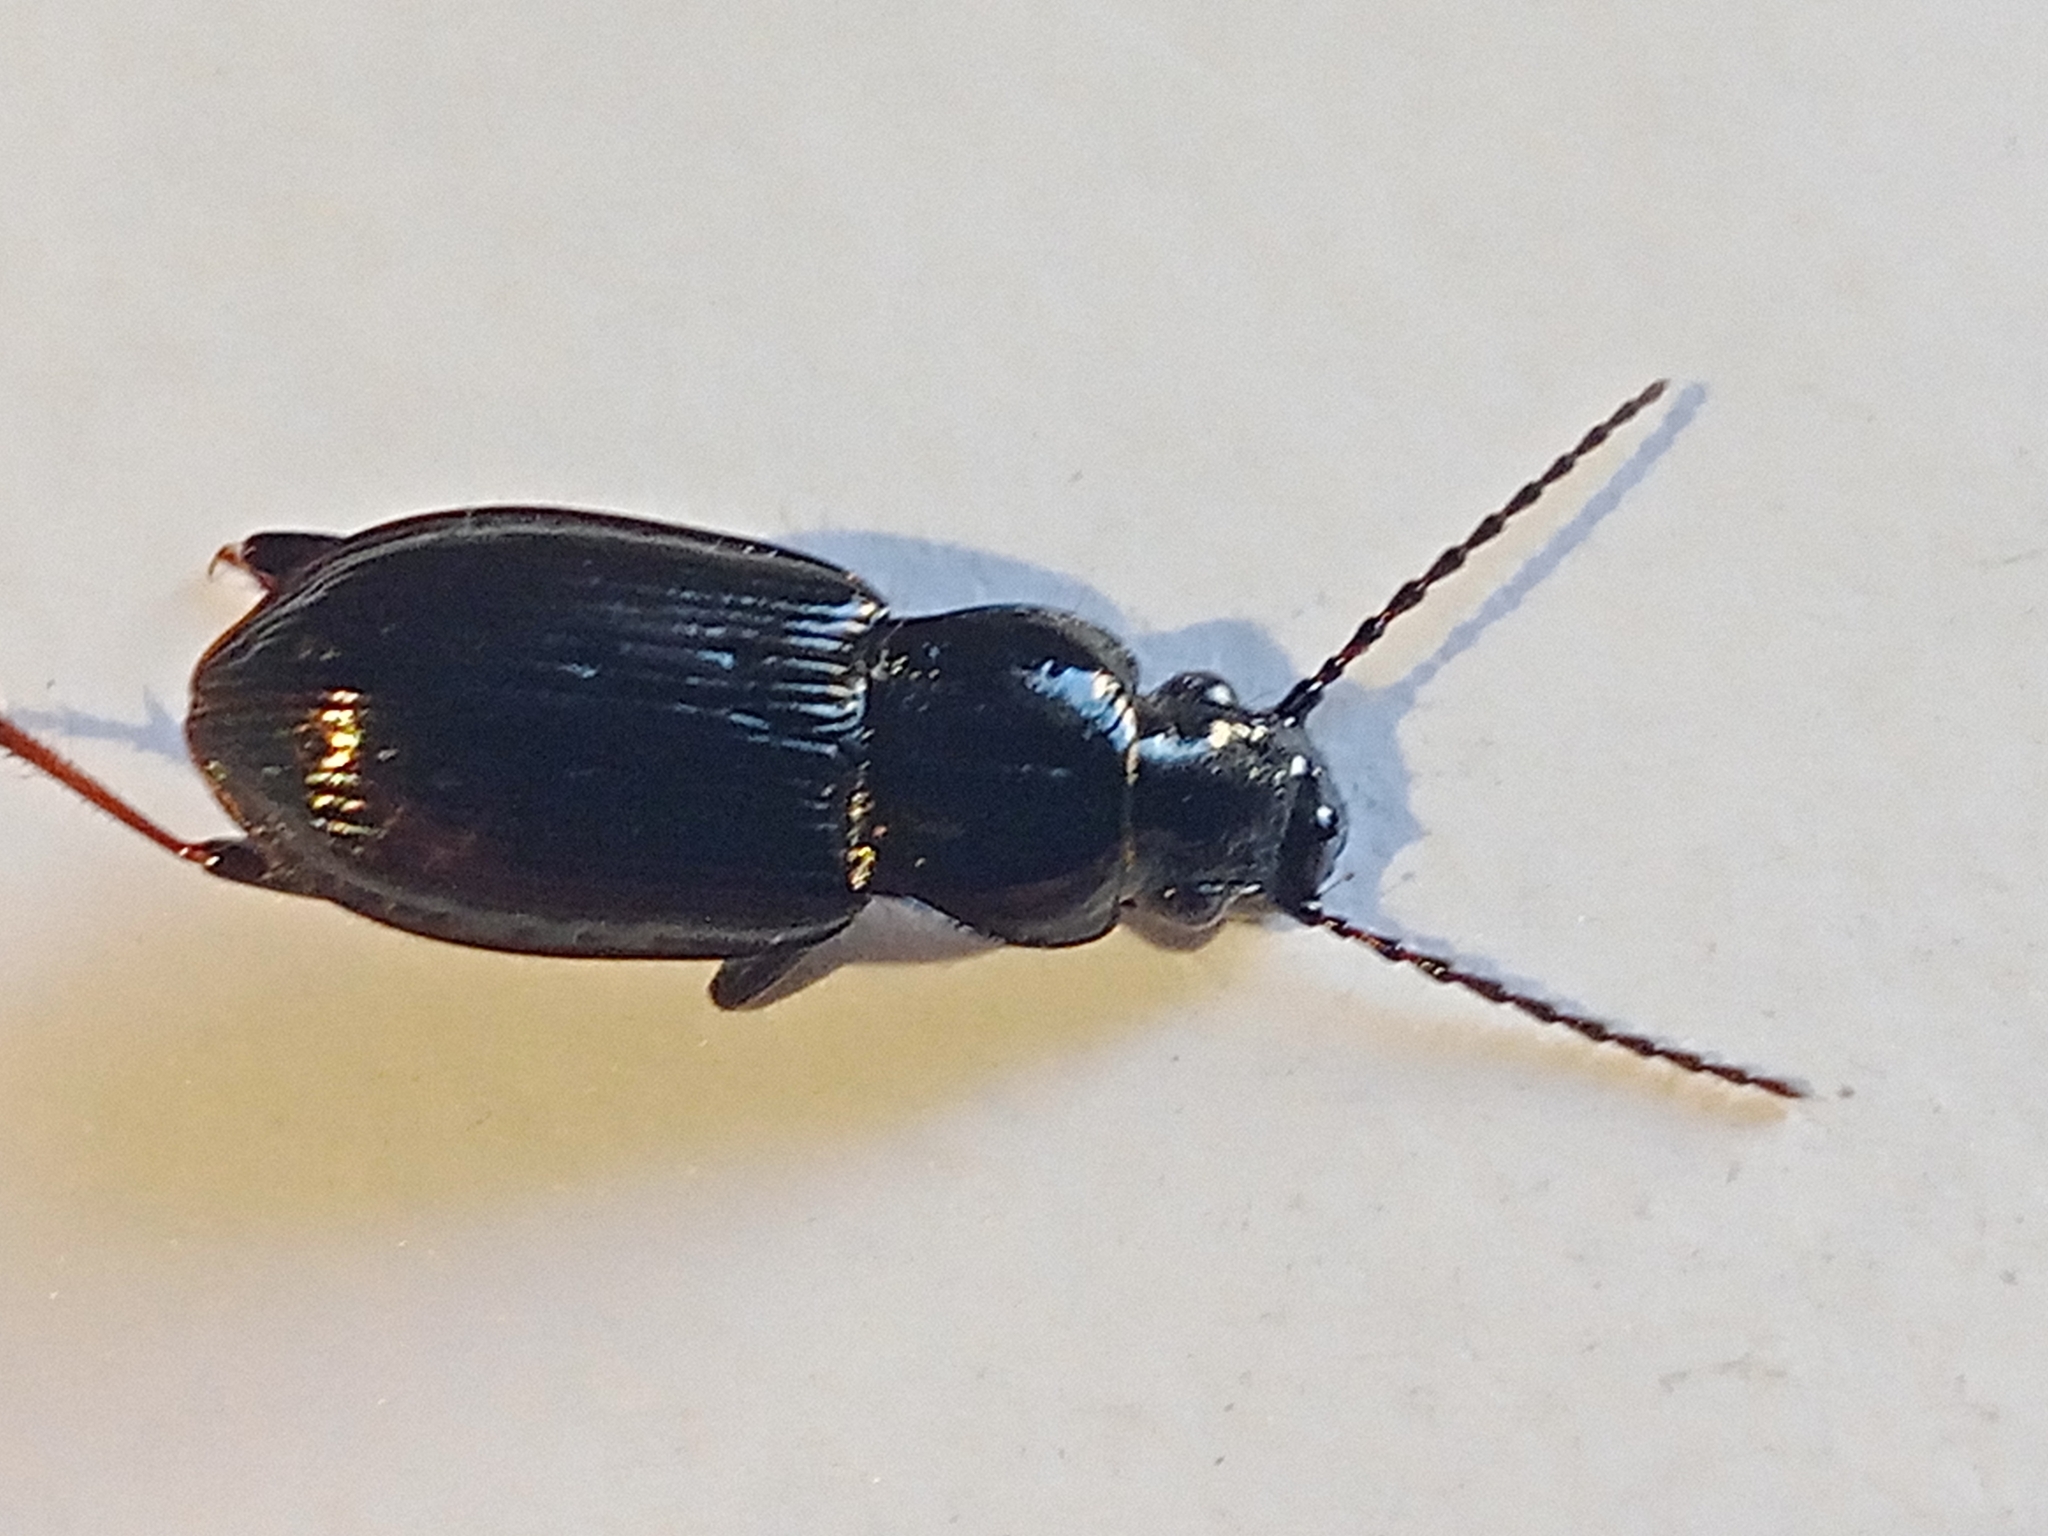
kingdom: Animalia
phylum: Arthropoda
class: Insecta
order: Coleoptera
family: Carabidae
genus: Pterostichus
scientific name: Pterostichus oblongopunctatus
